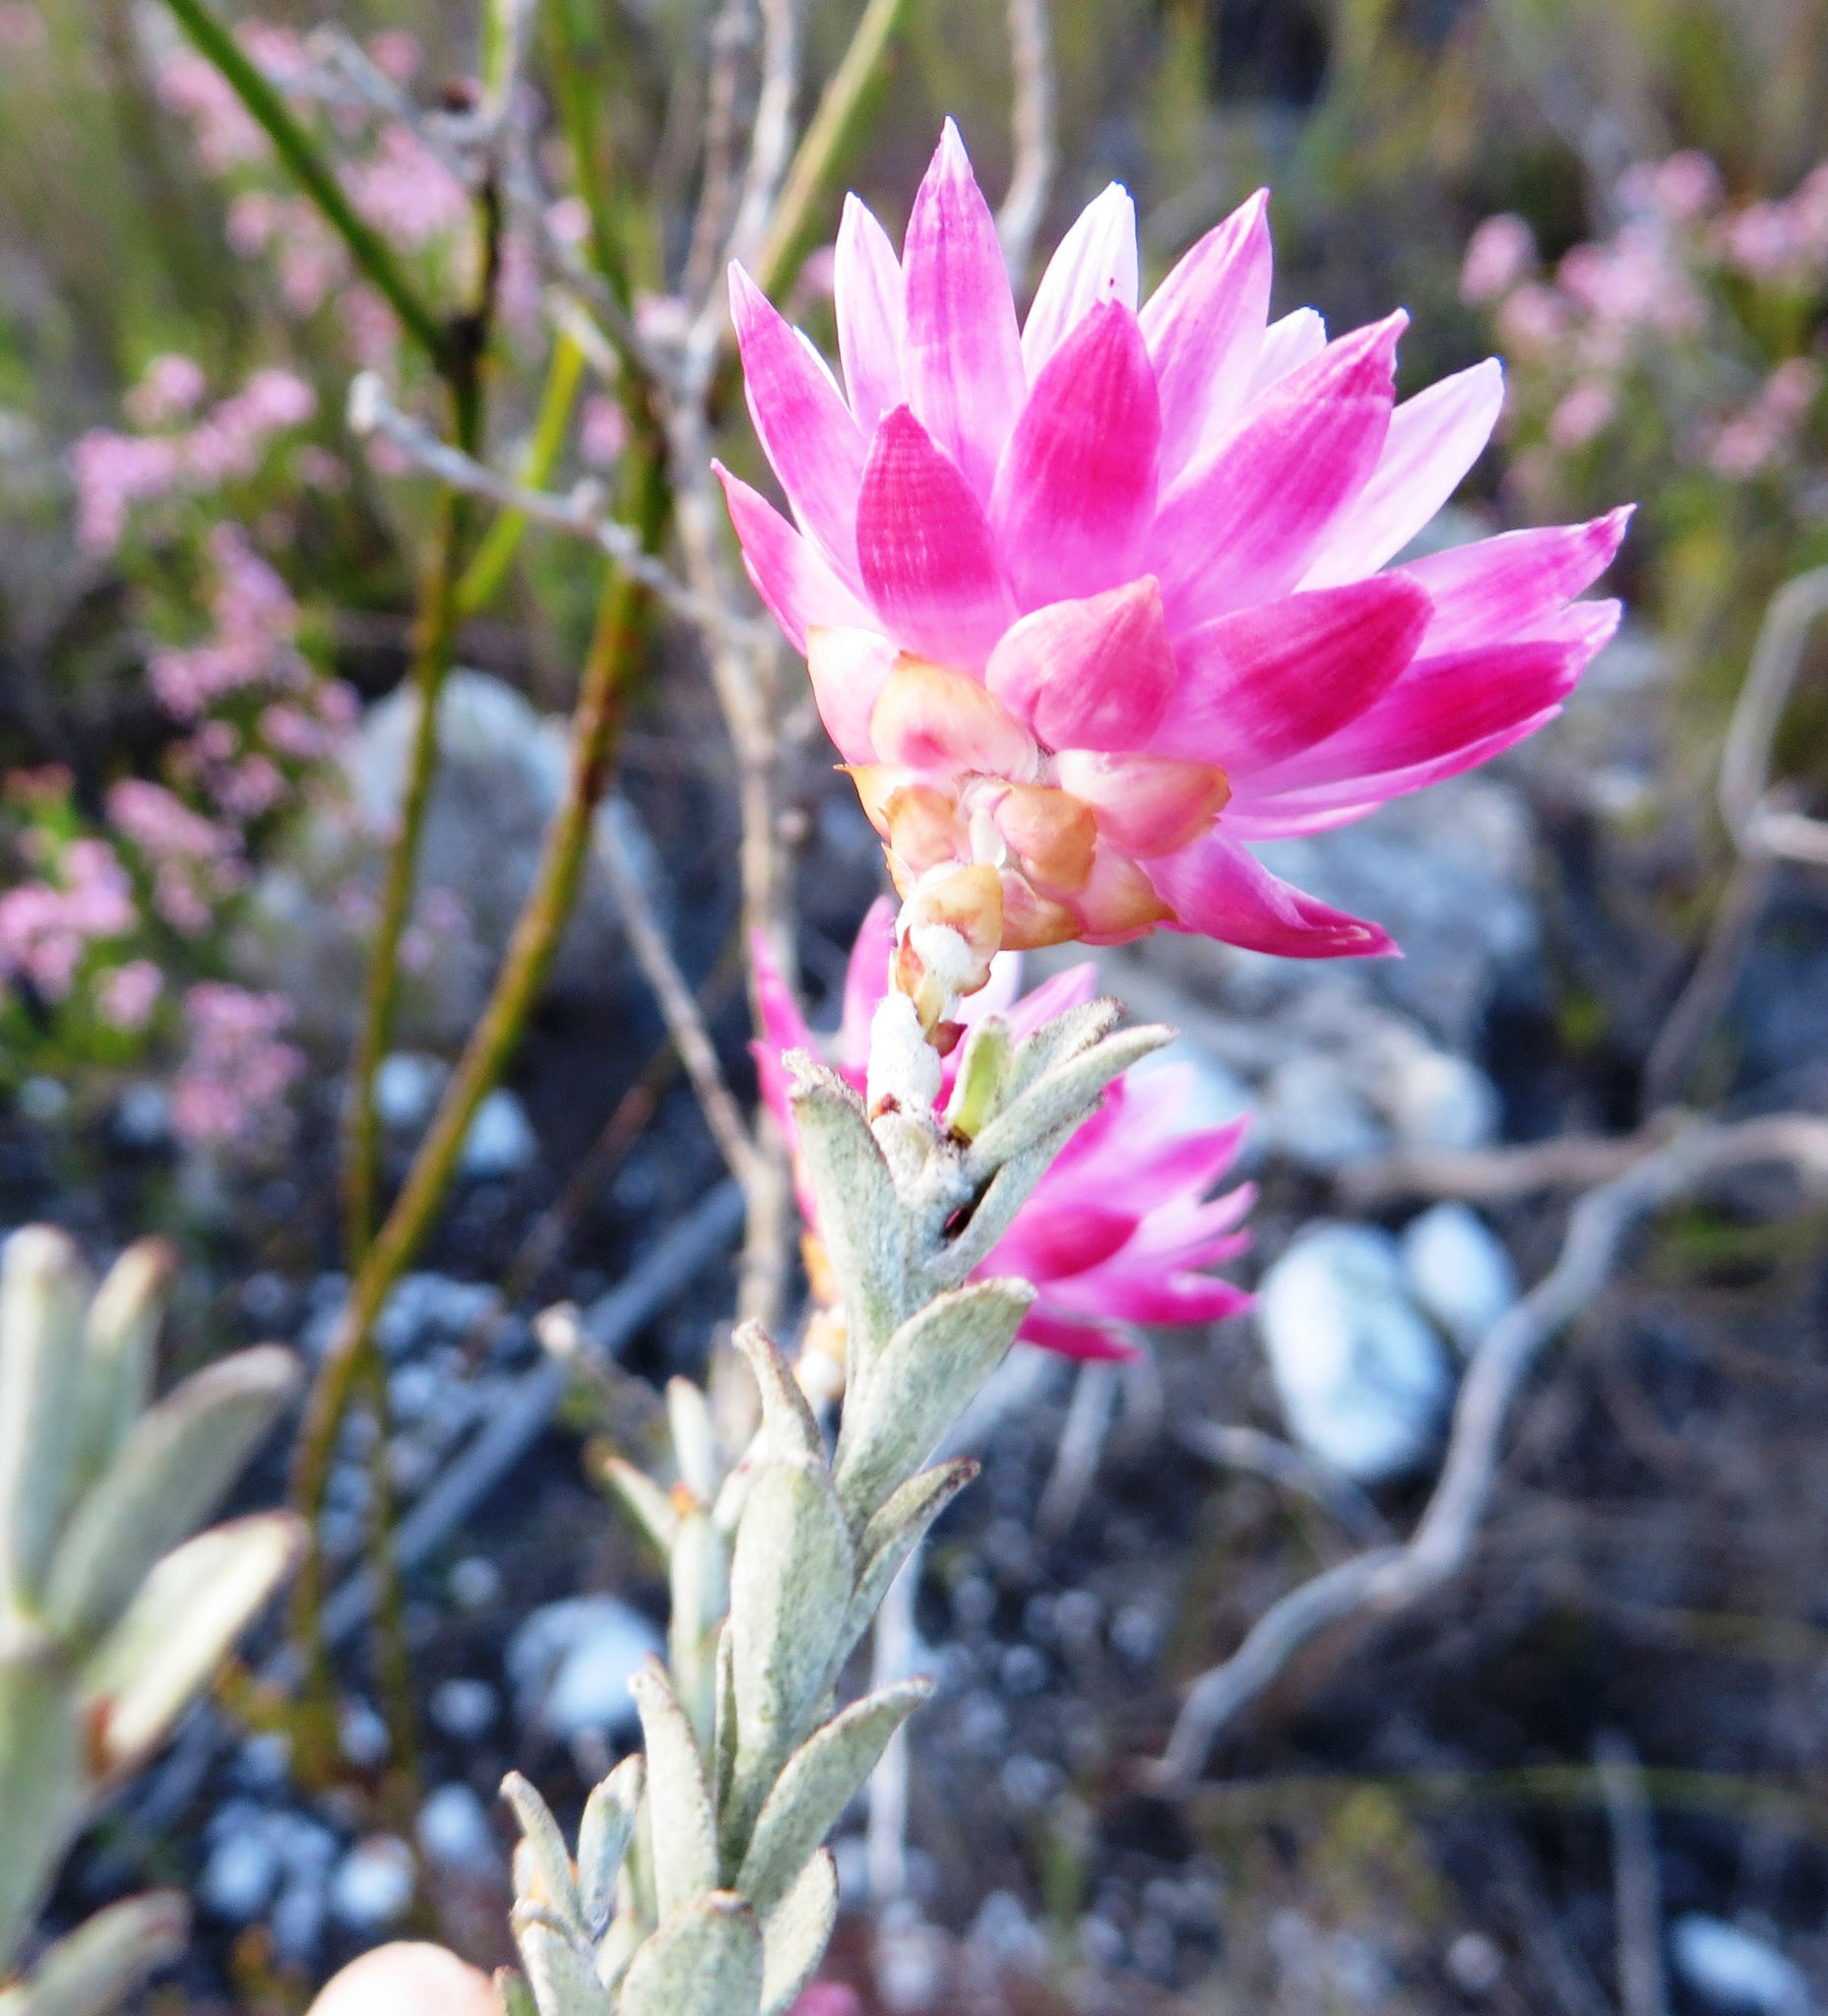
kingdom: Plantae
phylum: Tracheophyta
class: Magnoliopsida
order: Asterales
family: Asteraceae
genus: Syncarpha
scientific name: Syncarpha canescens
